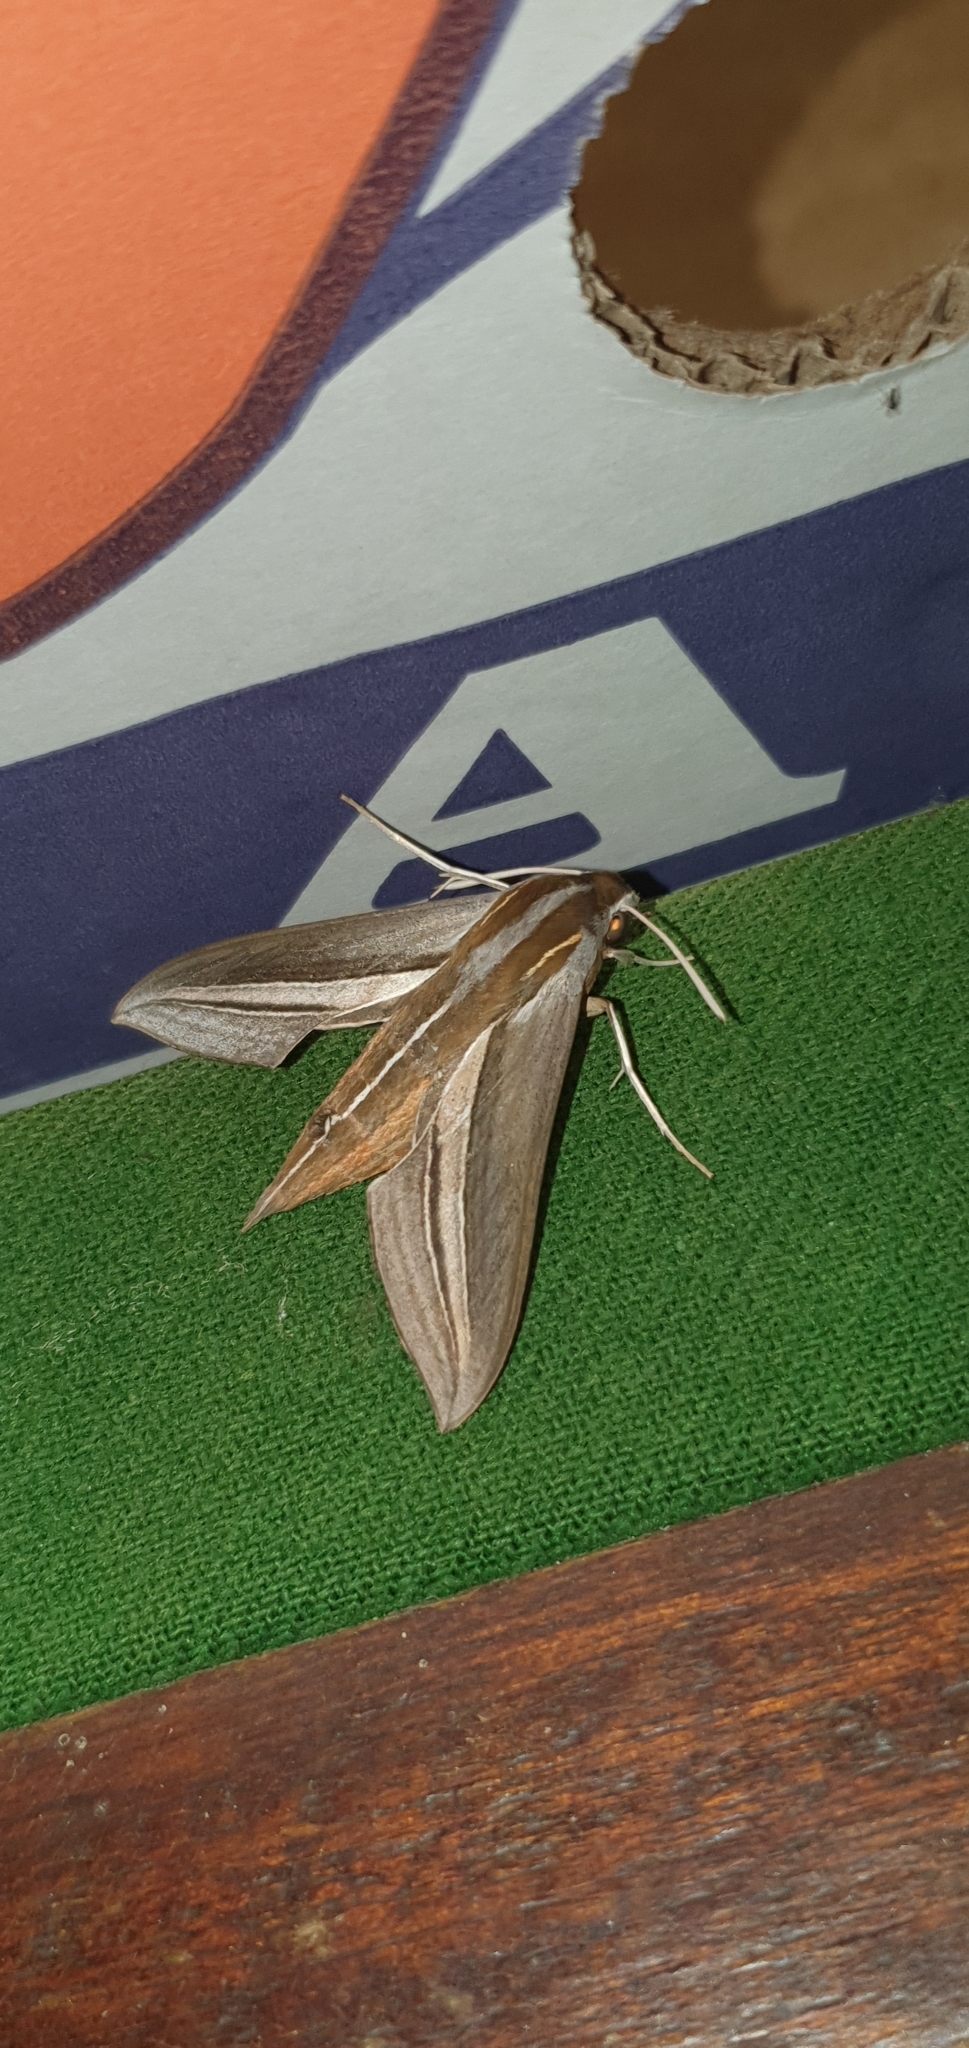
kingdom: Animalia
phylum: Arthropoda
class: Insecta
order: Lepidoptera
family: Sphingidae
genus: Theretra
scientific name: Theretra margarita
